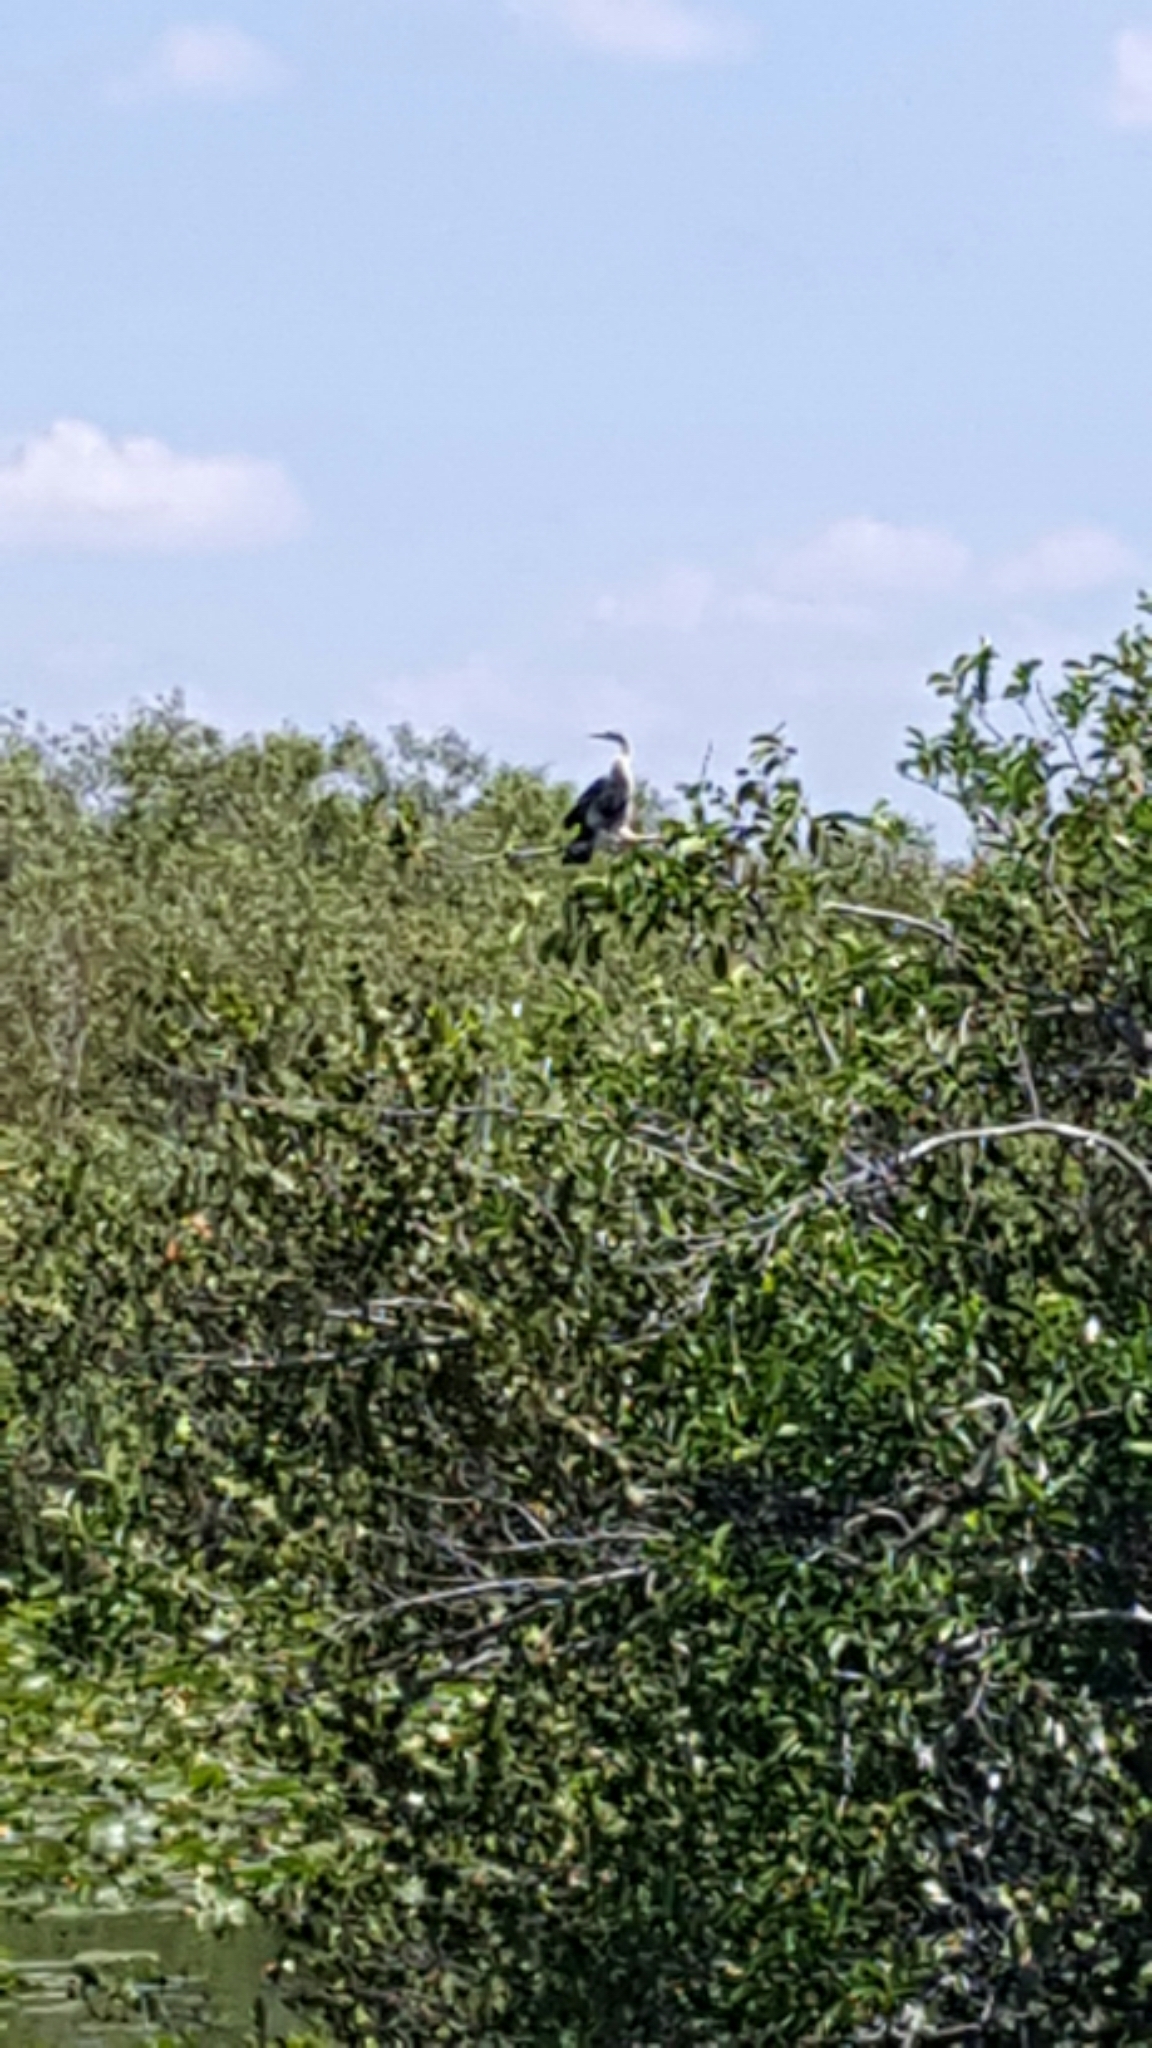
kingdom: Animalia
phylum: Chordata
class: Aves
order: Suliformes
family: Anhingidae
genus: Anhinga
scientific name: Anhinga anhinga
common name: Anhinga
